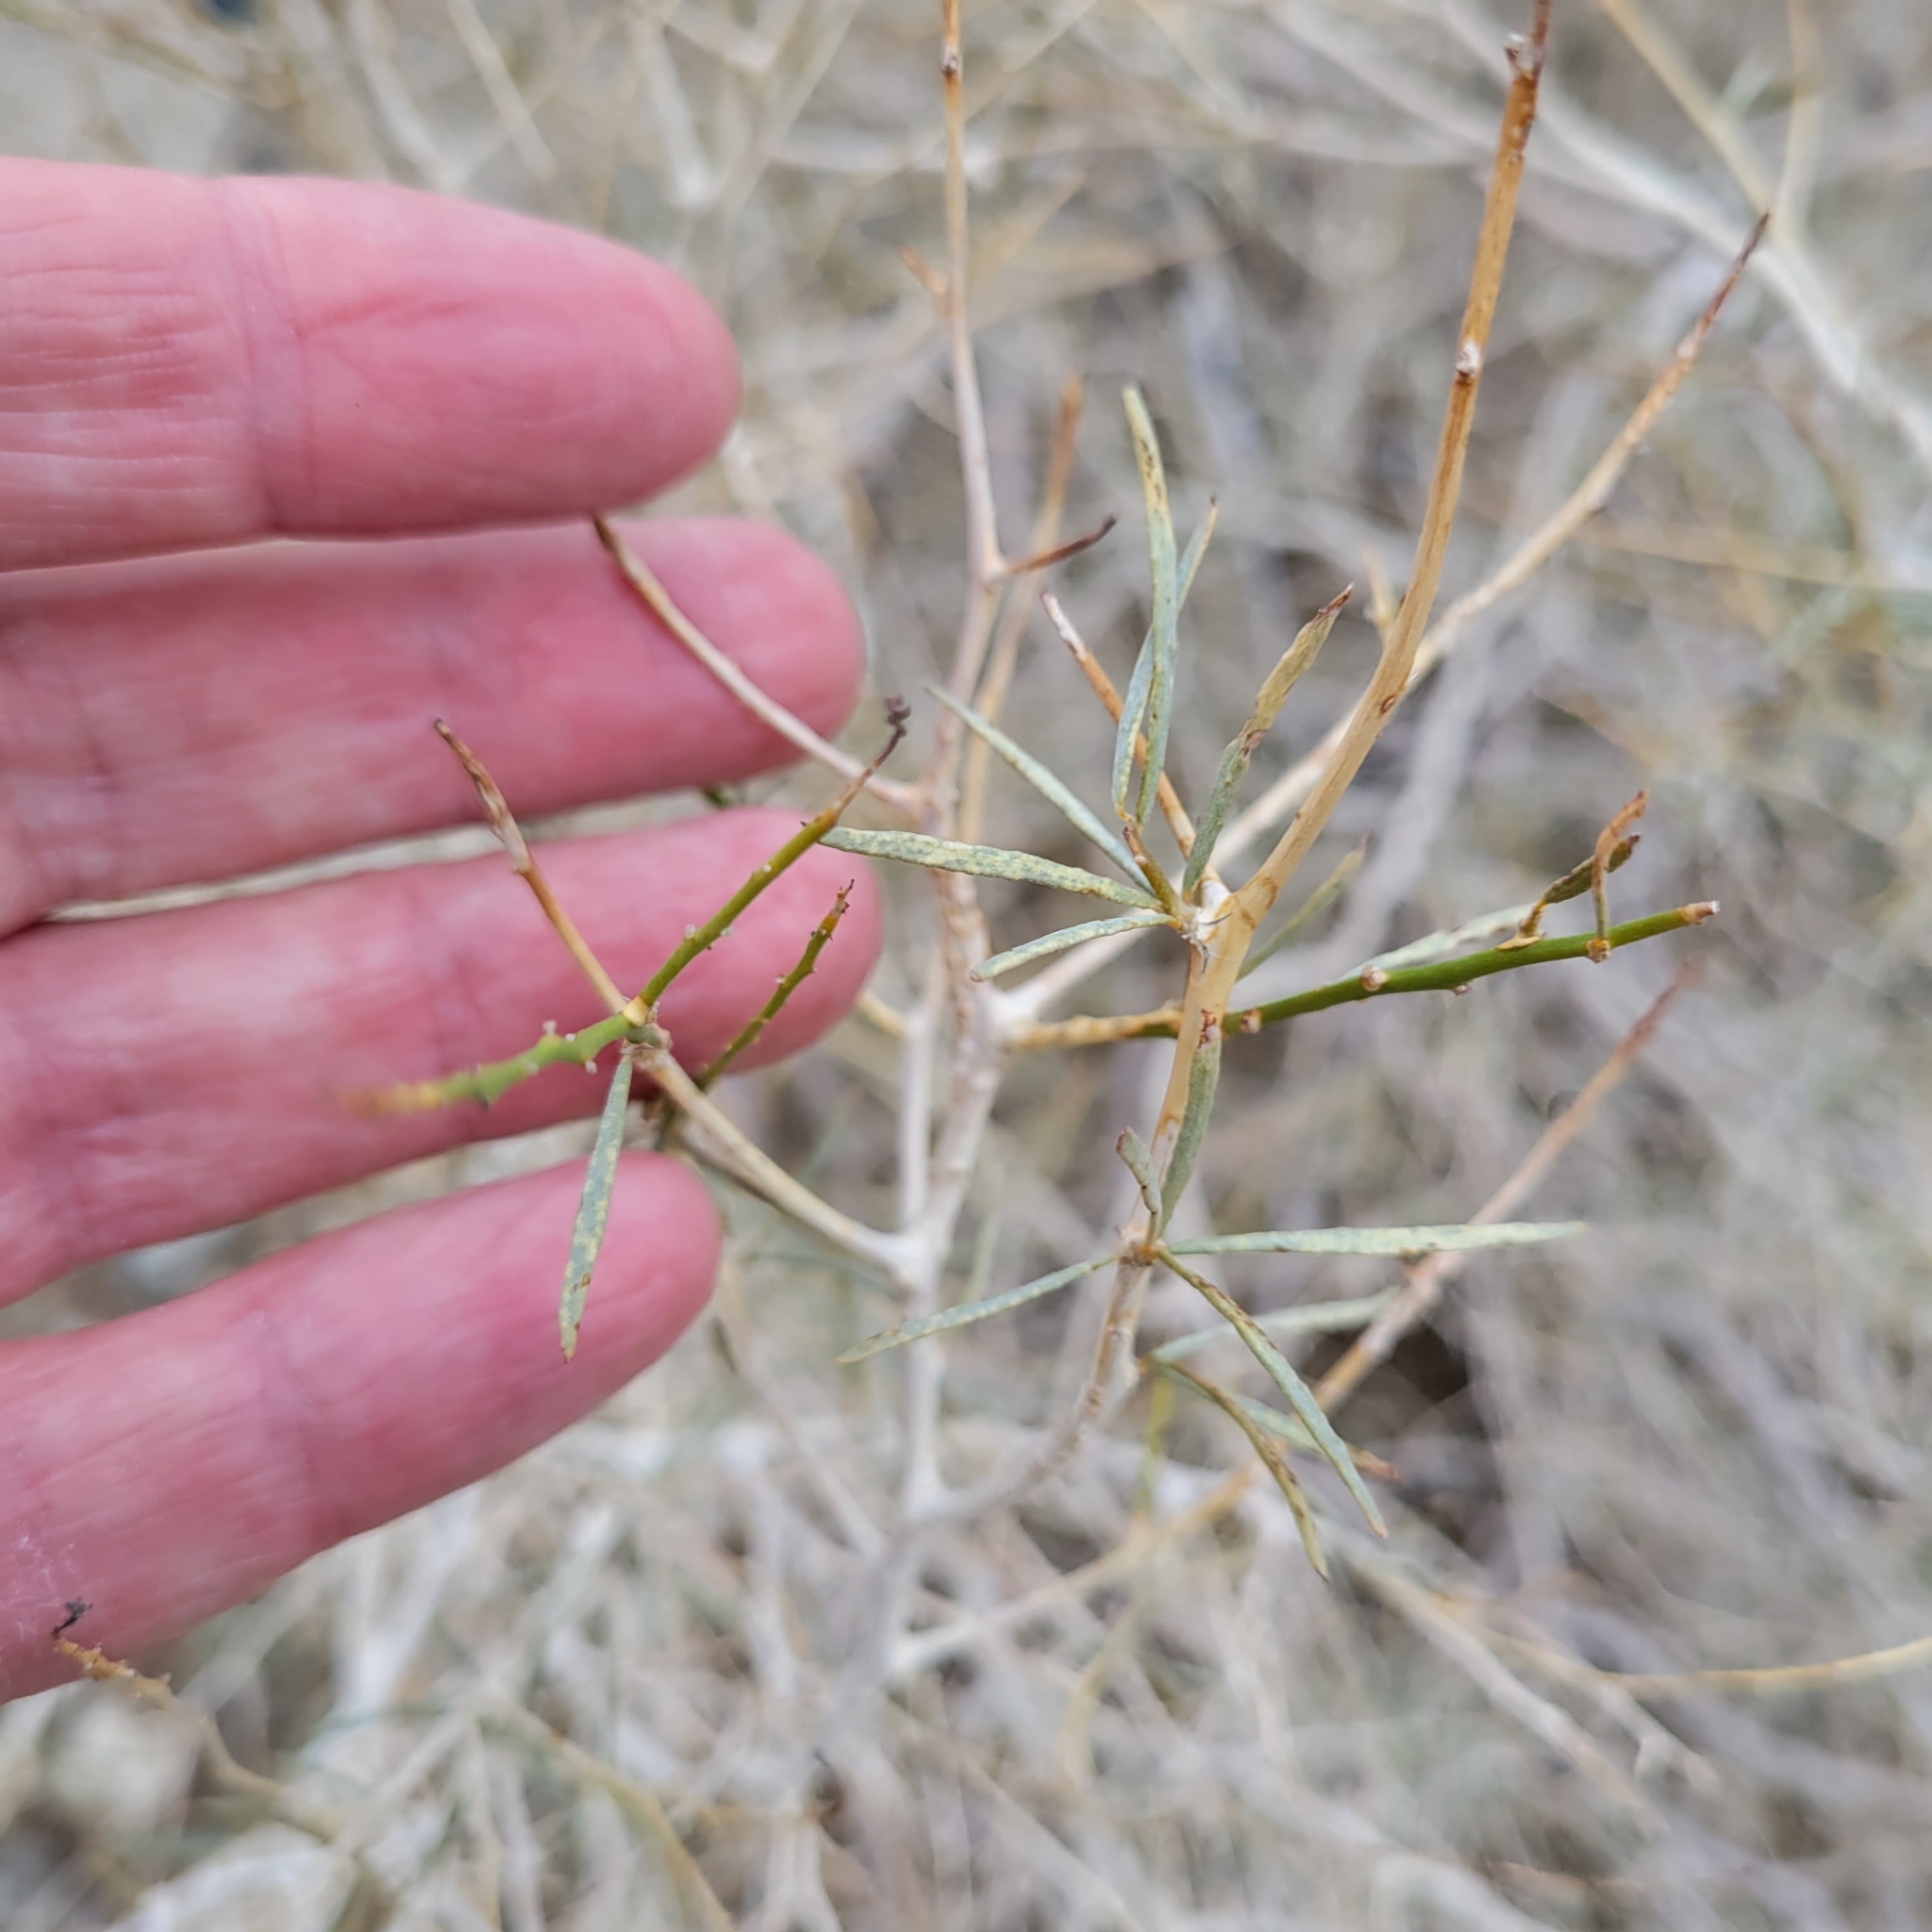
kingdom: Plantae
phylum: Tracheophyta
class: Magnoliopsida
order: Fabales
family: Fabaceae
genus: Psorothamnus
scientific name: Psorothamnus schottii
